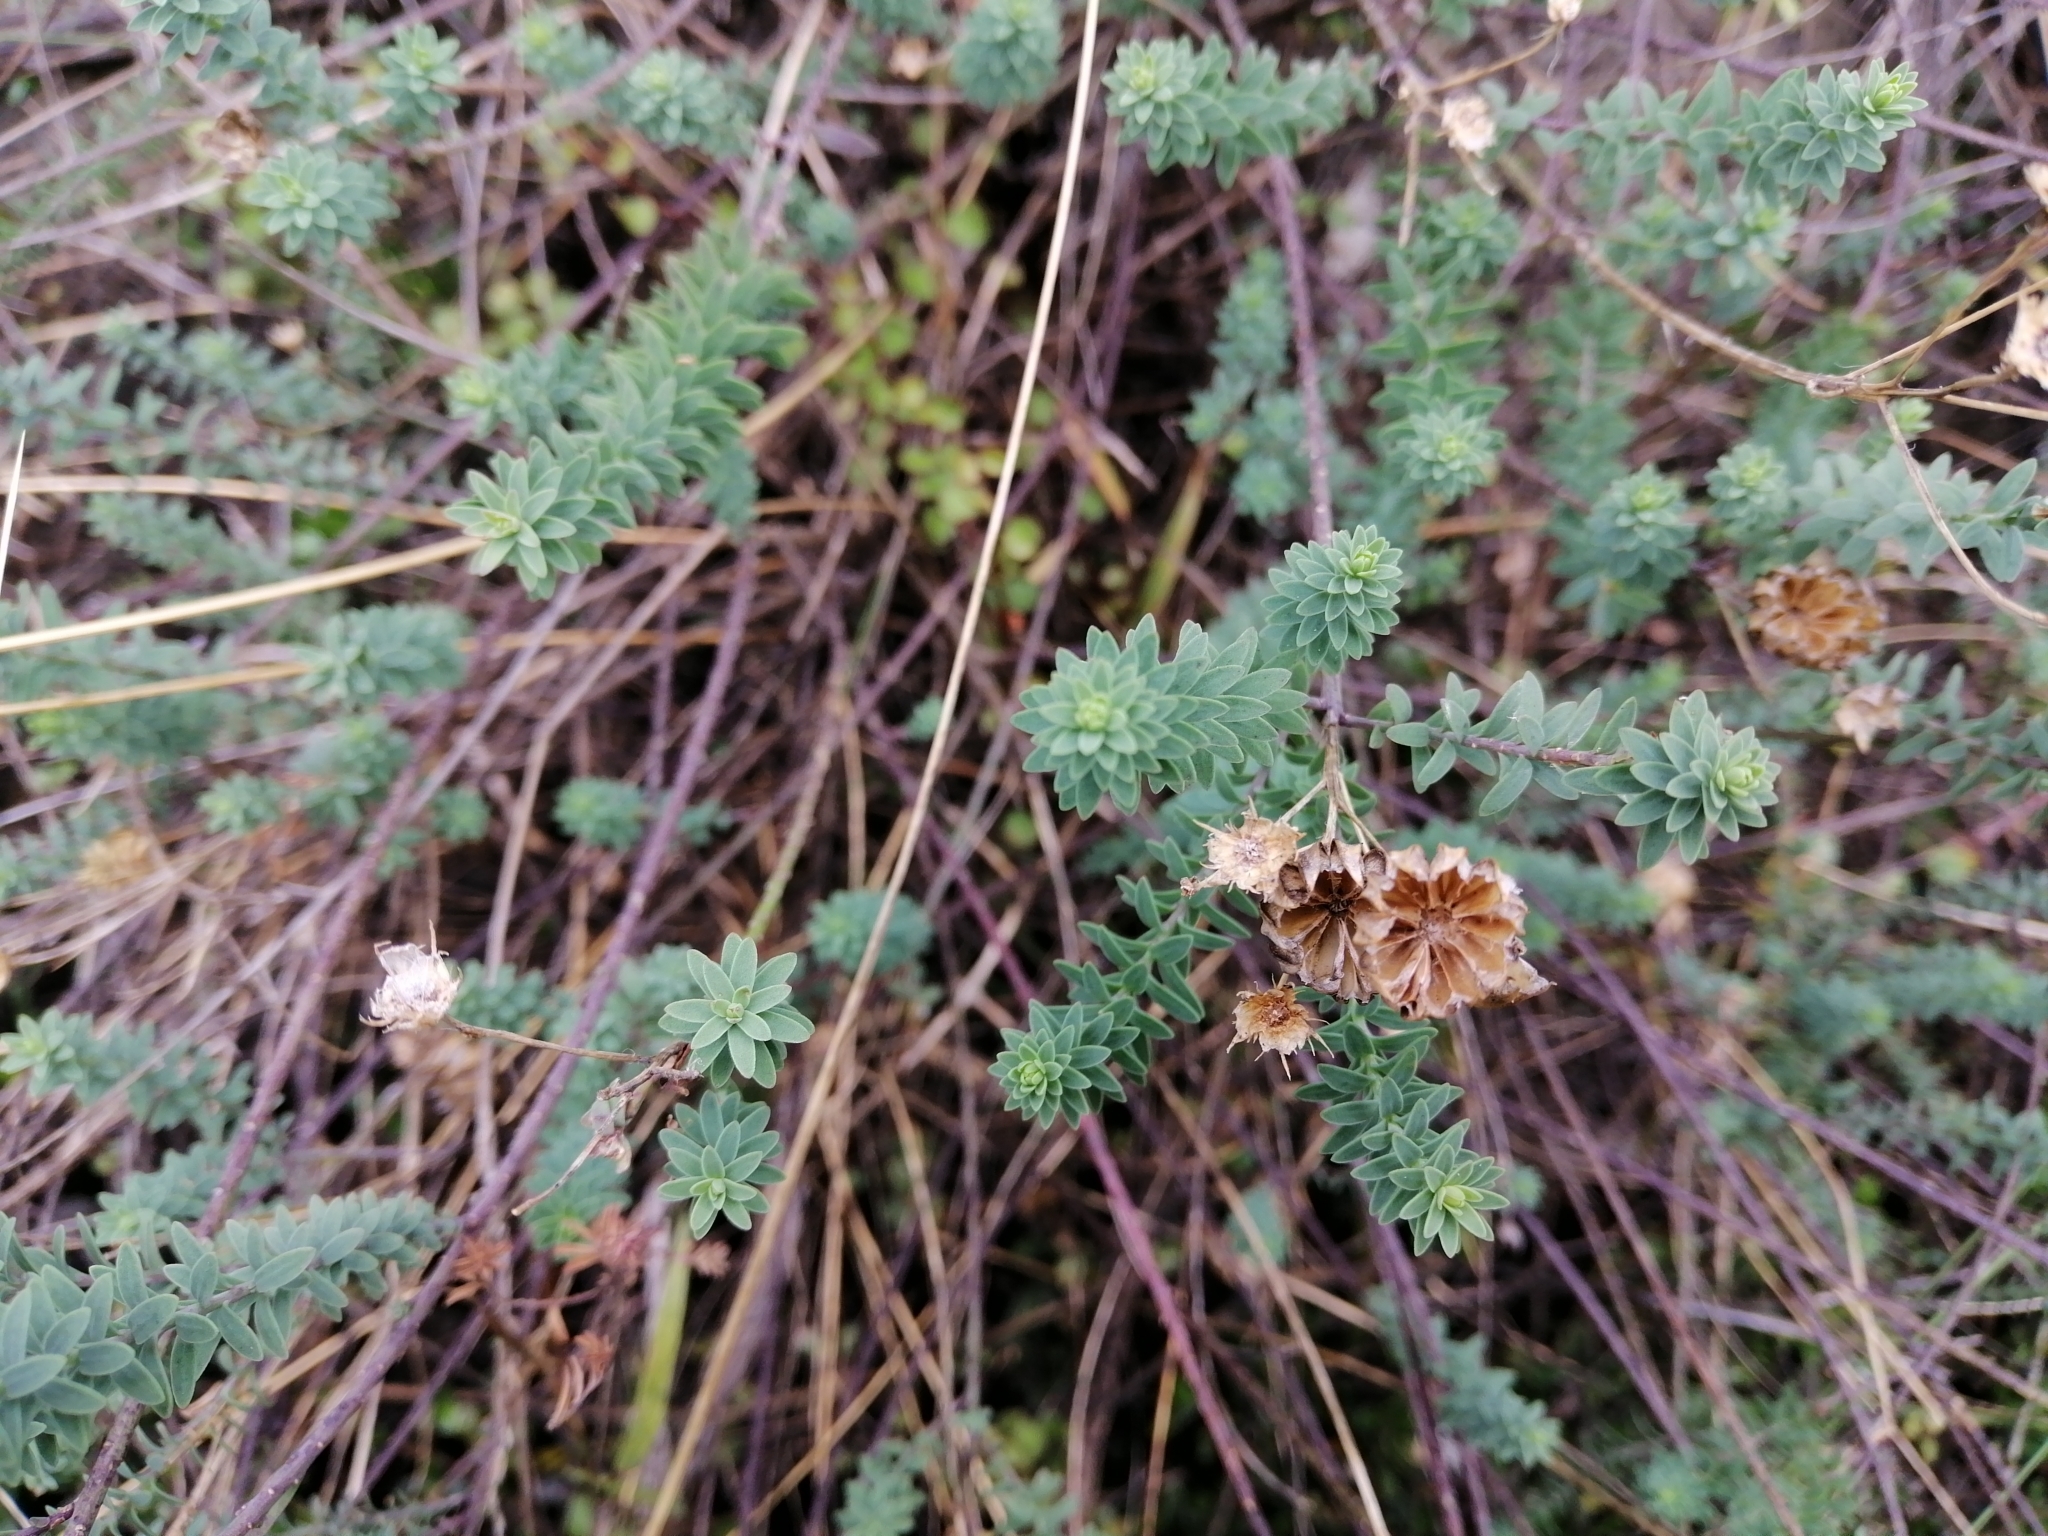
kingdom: Plantae
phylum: Tracheophyta
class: Magnoliopsida
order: Malpighiales
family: Linaceae
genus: Linum
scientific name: Linum monogynum
